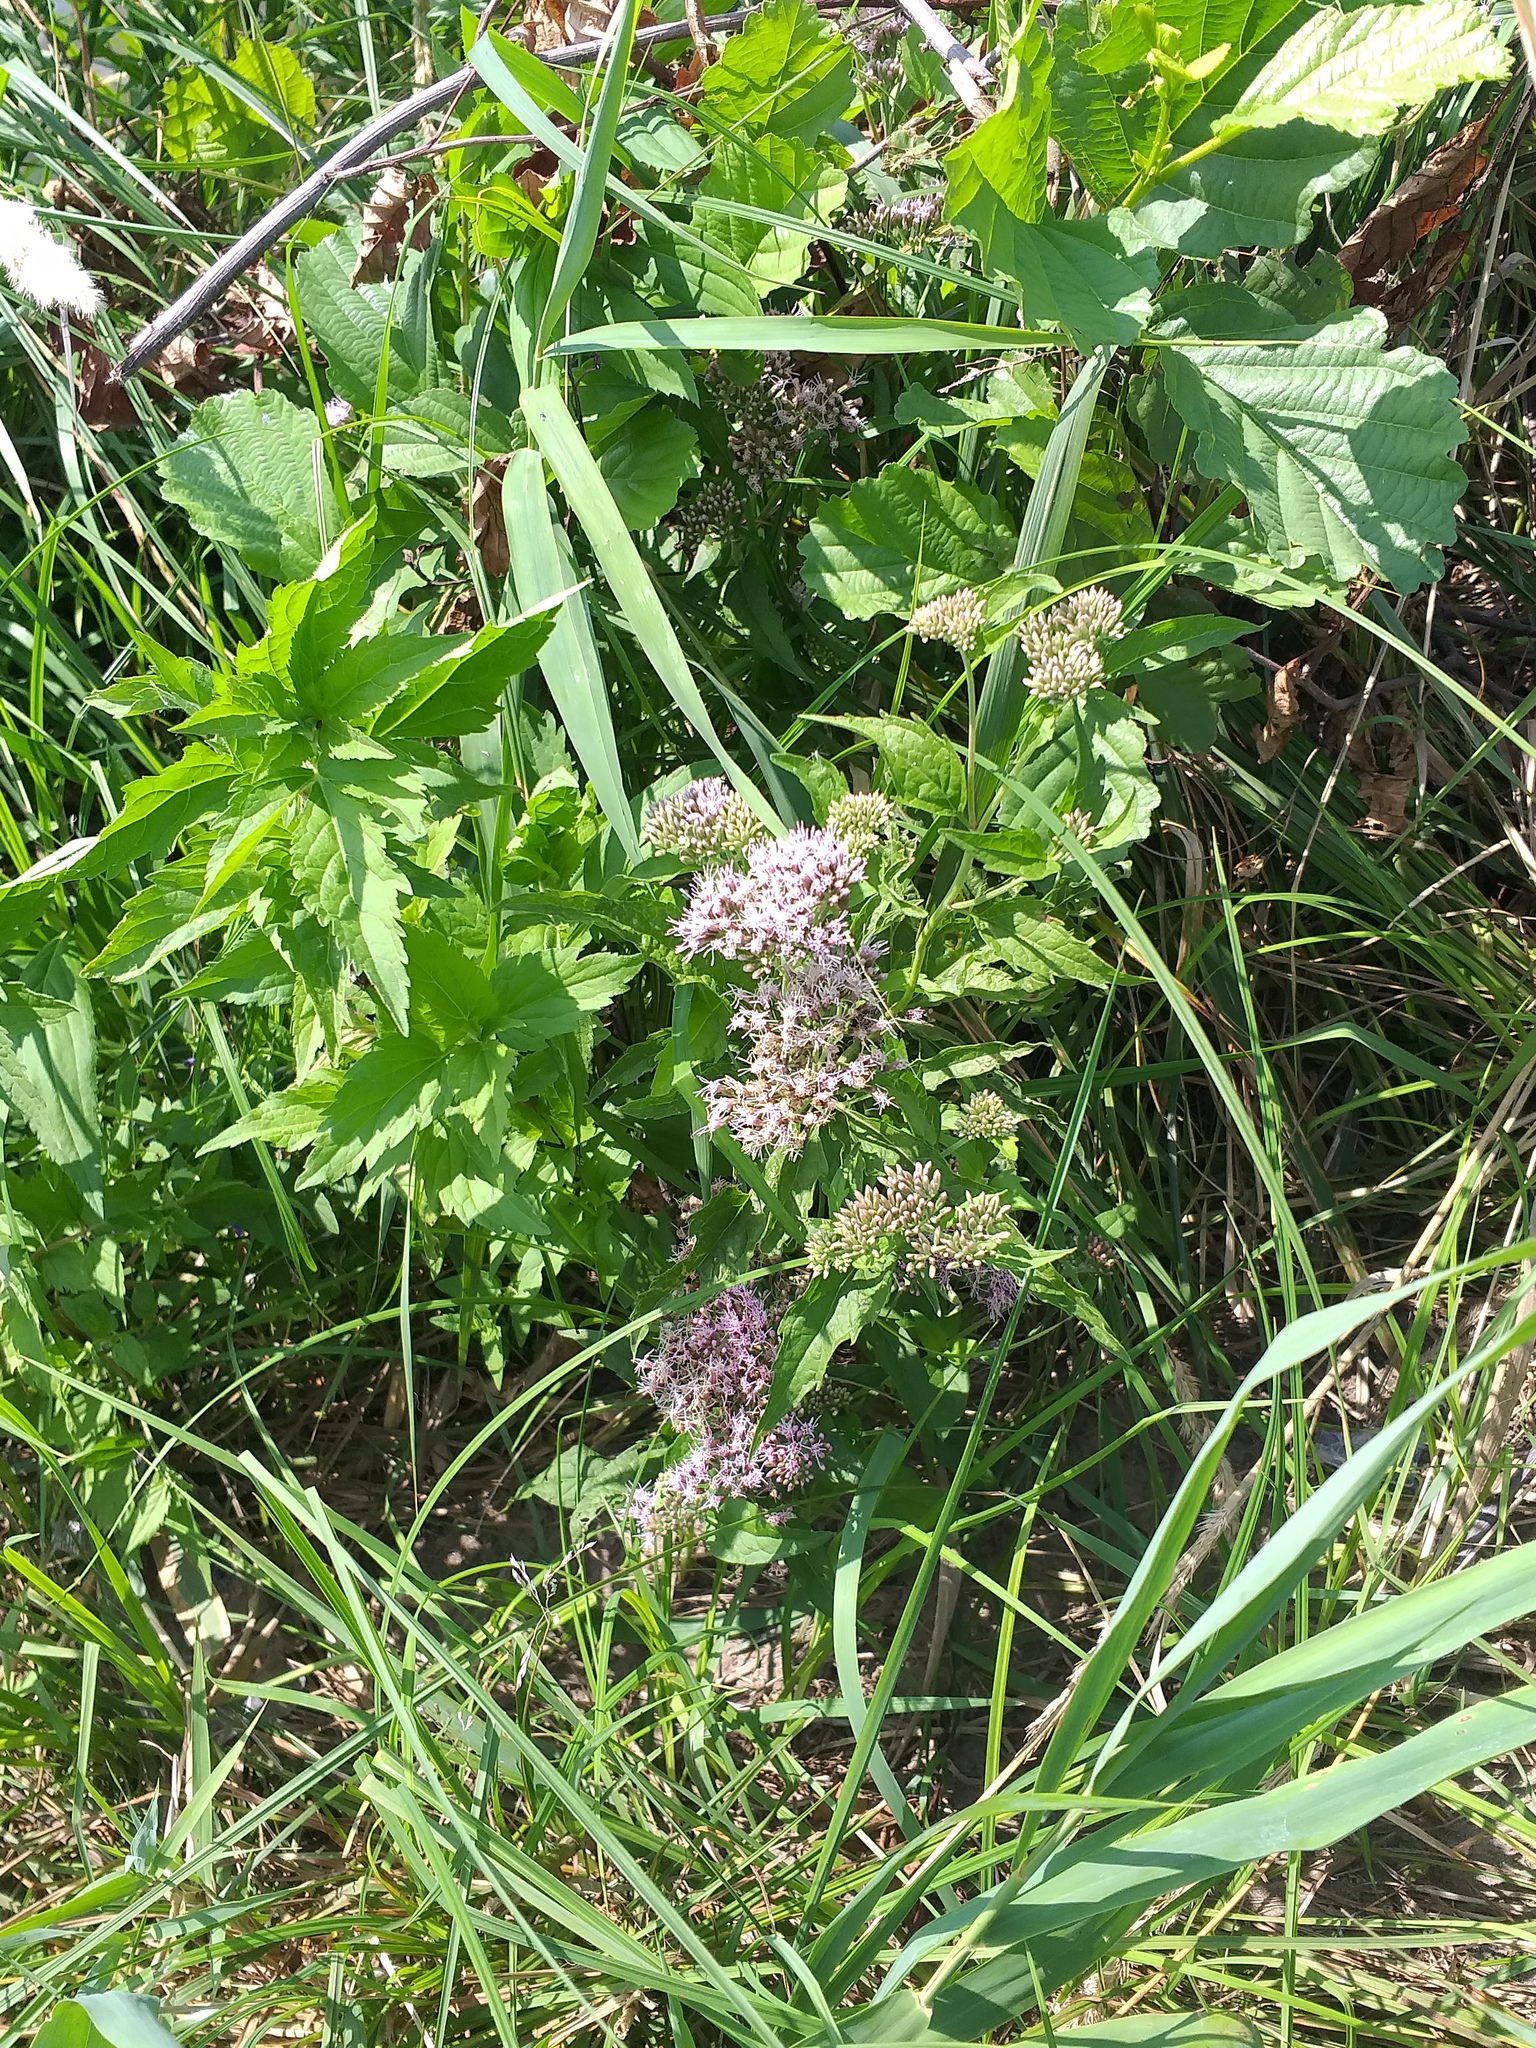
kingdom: Plantae
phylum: Tracheophyta
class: Magnoliopsida
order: Asterales
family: Asteraceae
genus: Eupatorium
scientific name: Eupatorium cannabinum
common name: Hemp-agrimony
